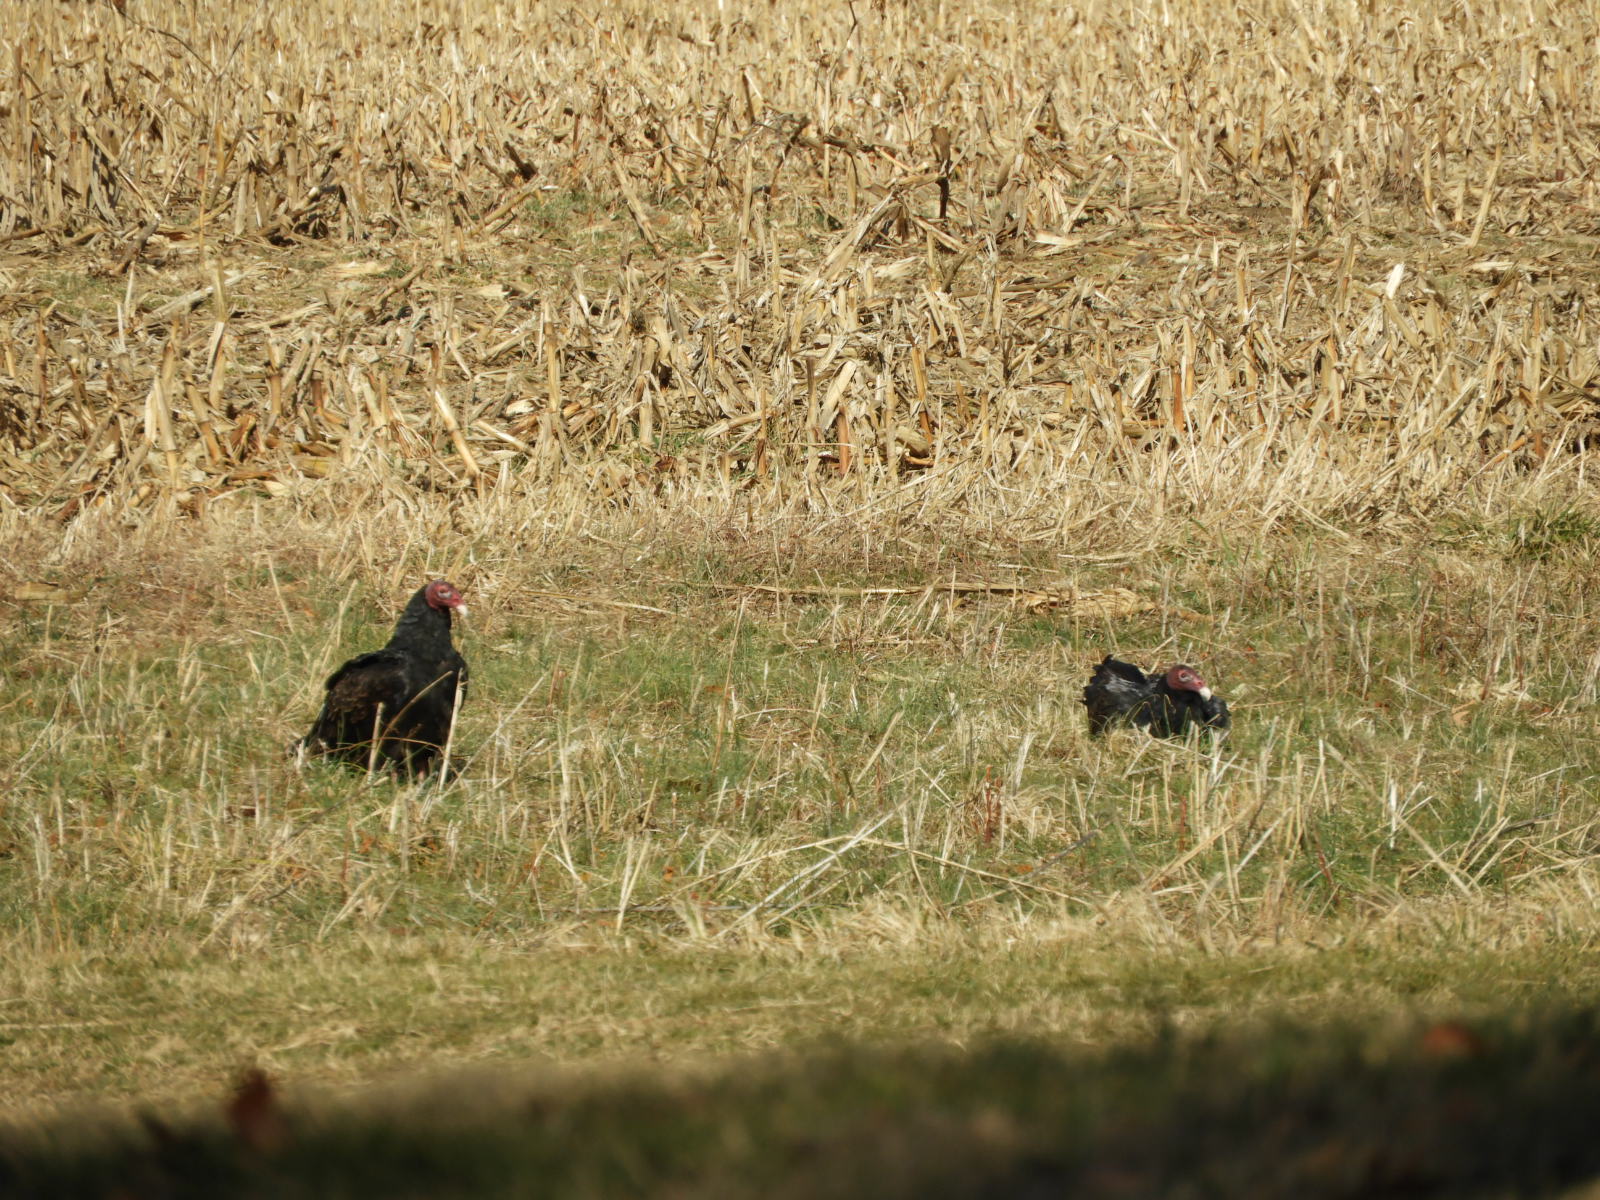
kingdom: Animalia
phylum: Chordata
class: Aves
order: Accipitriformes
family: Cathartidae
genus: Cathartes
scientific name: Cathartes aura
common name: Turkey vulture
